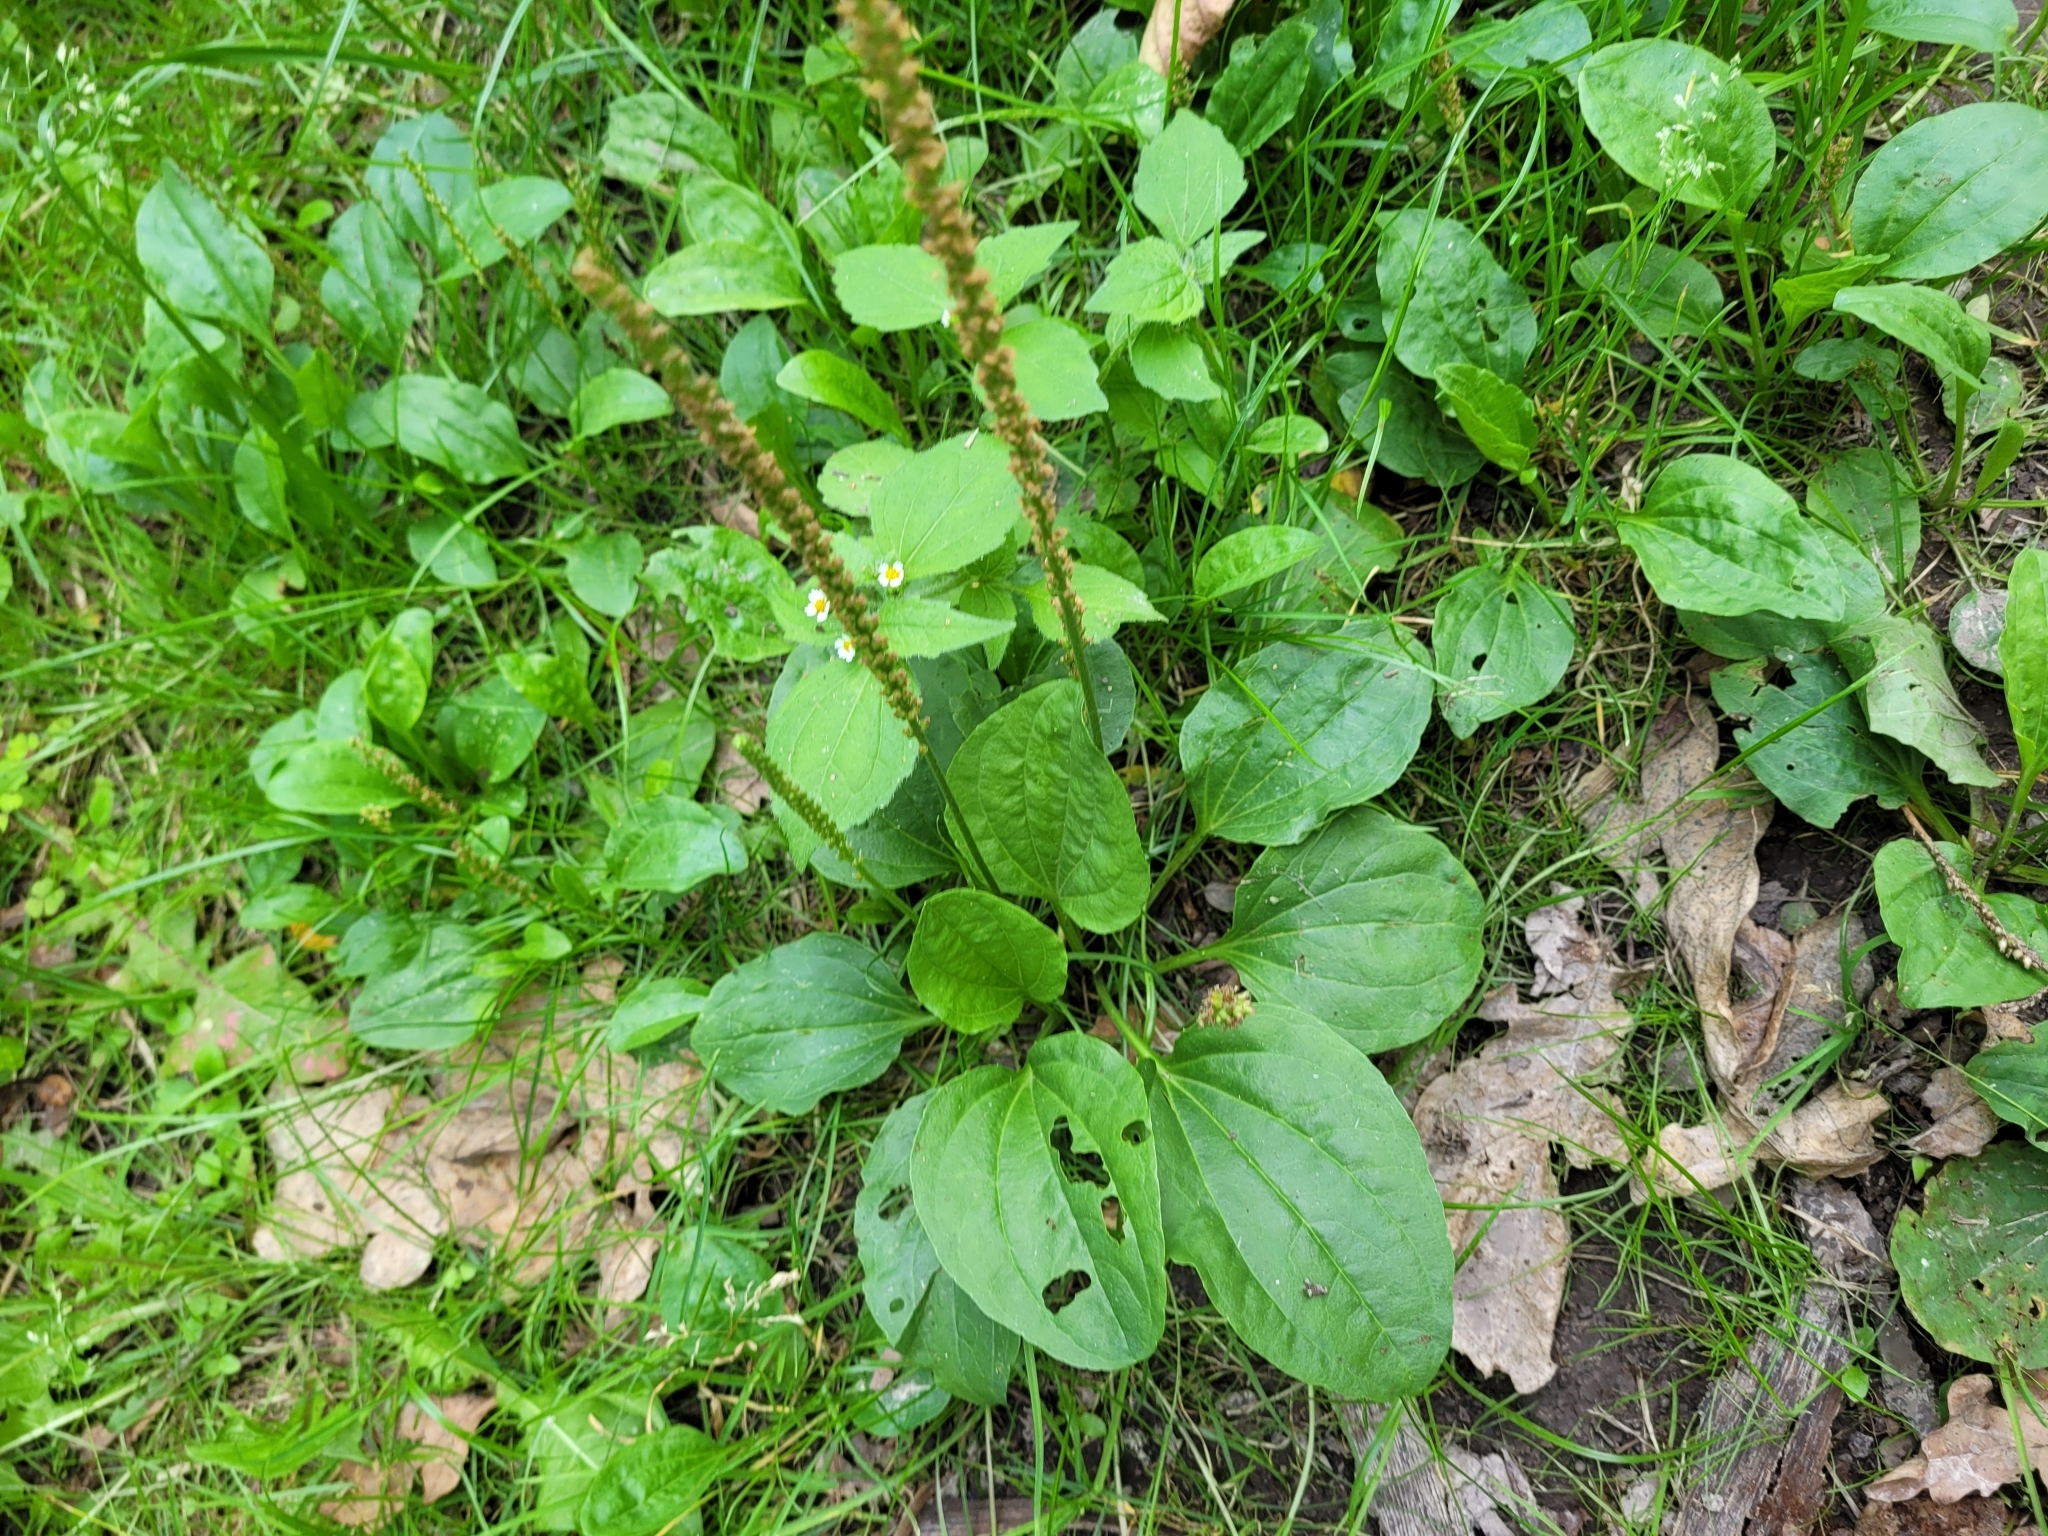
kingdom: Plantae
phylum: Tracheophyta
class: Magnoliopsida
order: Lamiales
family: Plantaginaceae
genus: Plantago
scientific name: Plantago major
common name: Common plantain
